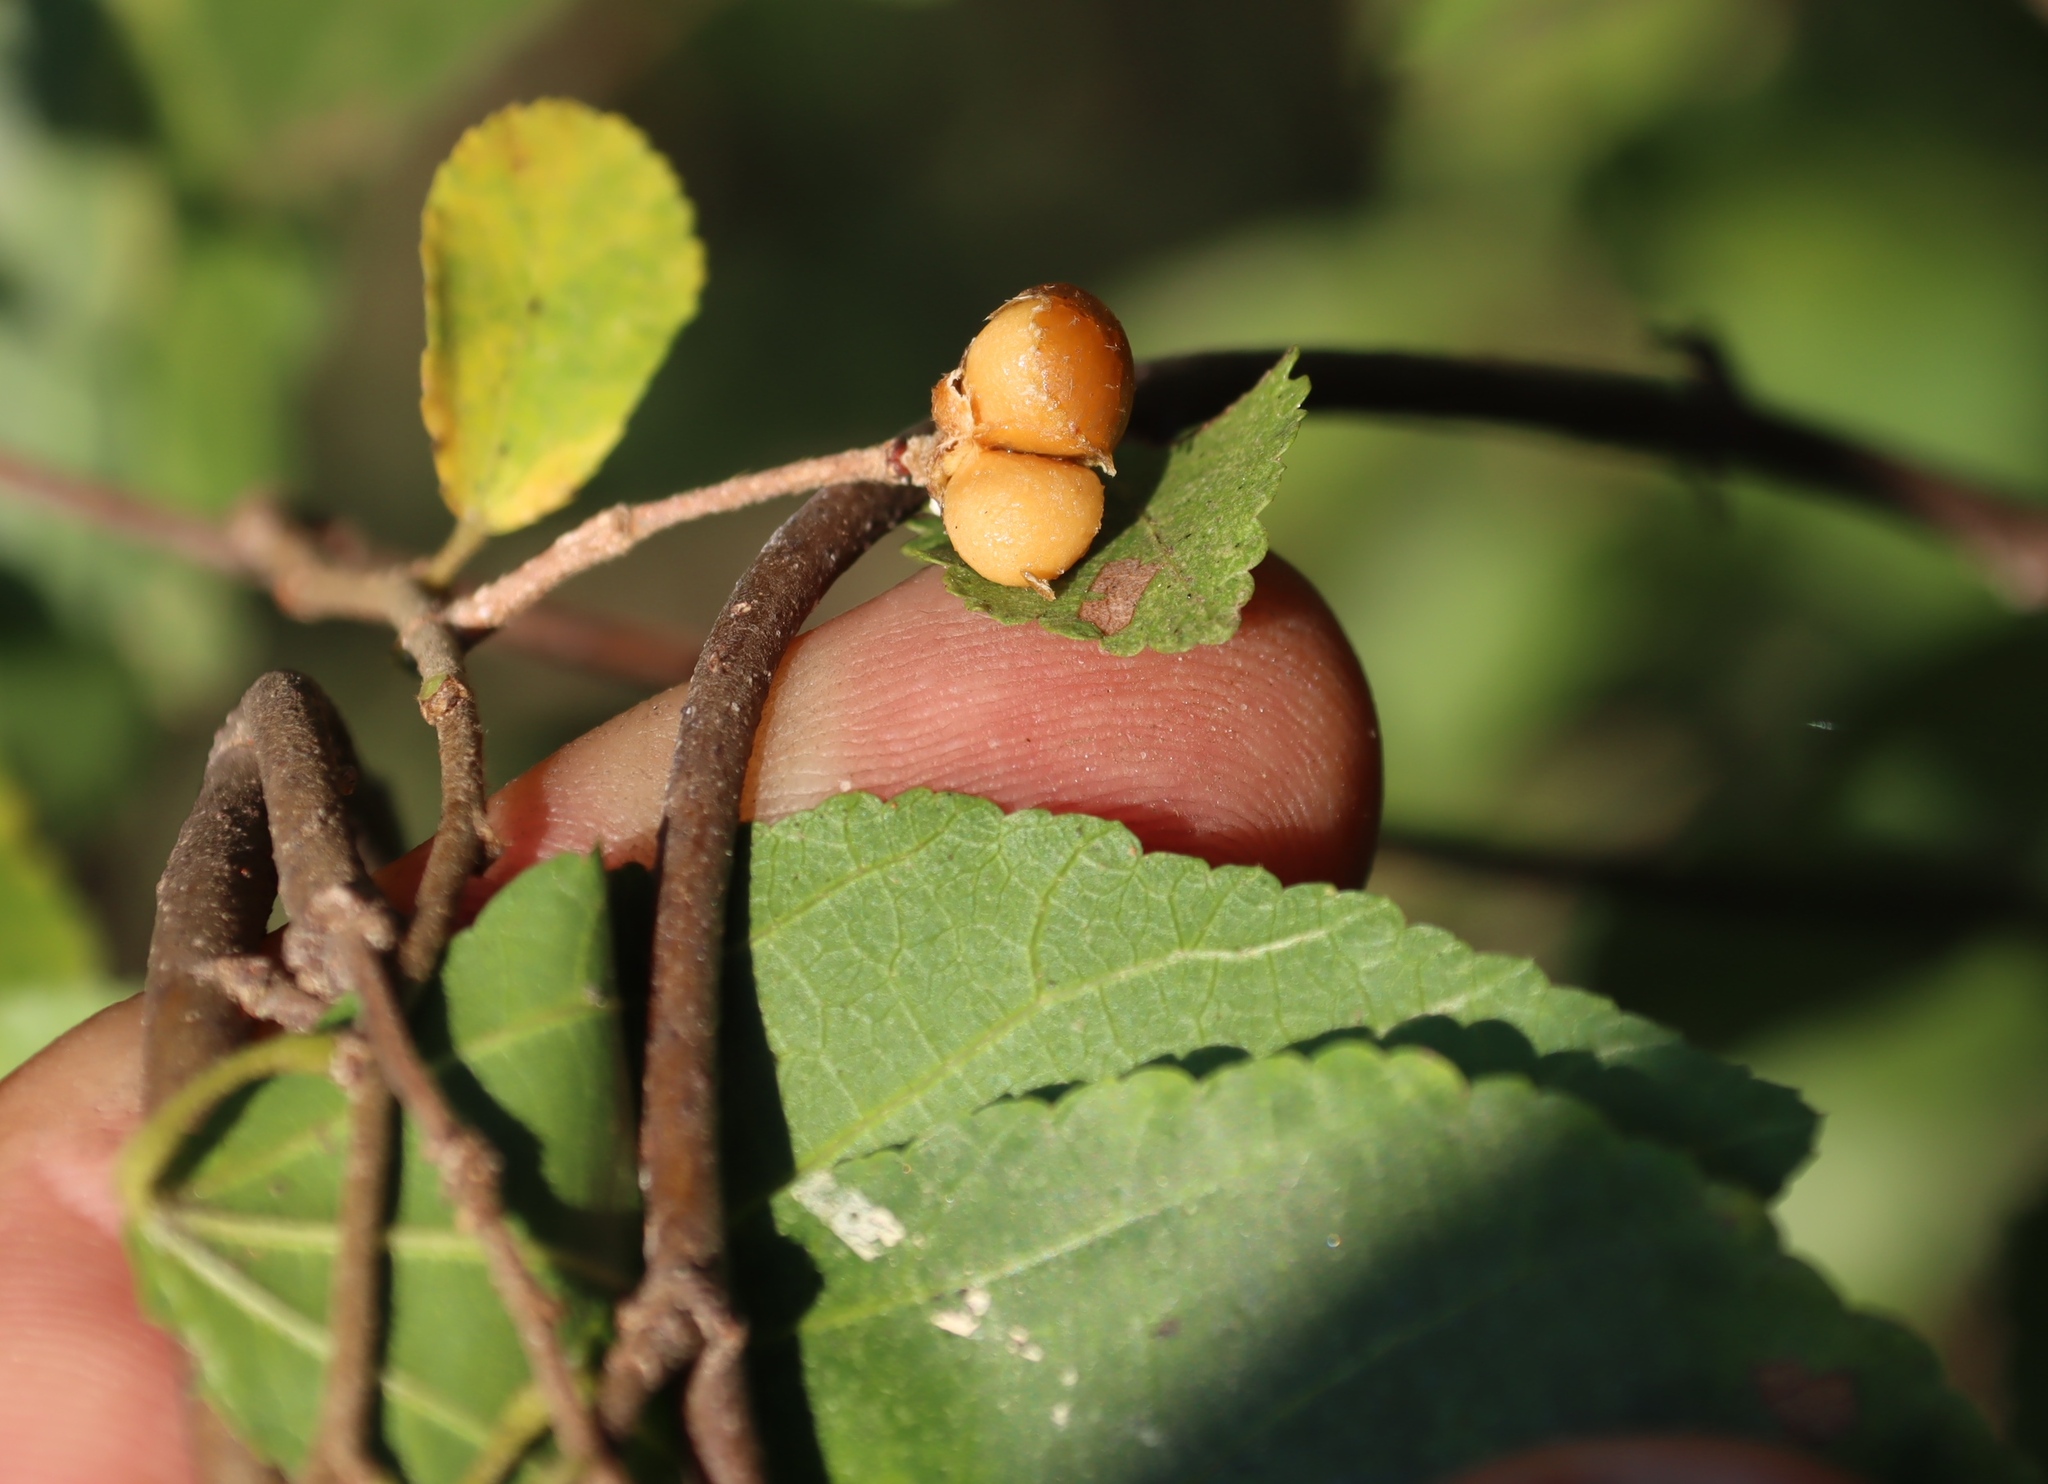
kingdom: Plantae
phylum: Tracheophyta
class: Magnoliopsida
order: Malvales
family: Malvaceae
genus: Grewia
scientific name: Grewia occidentalis
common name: Crossberry
